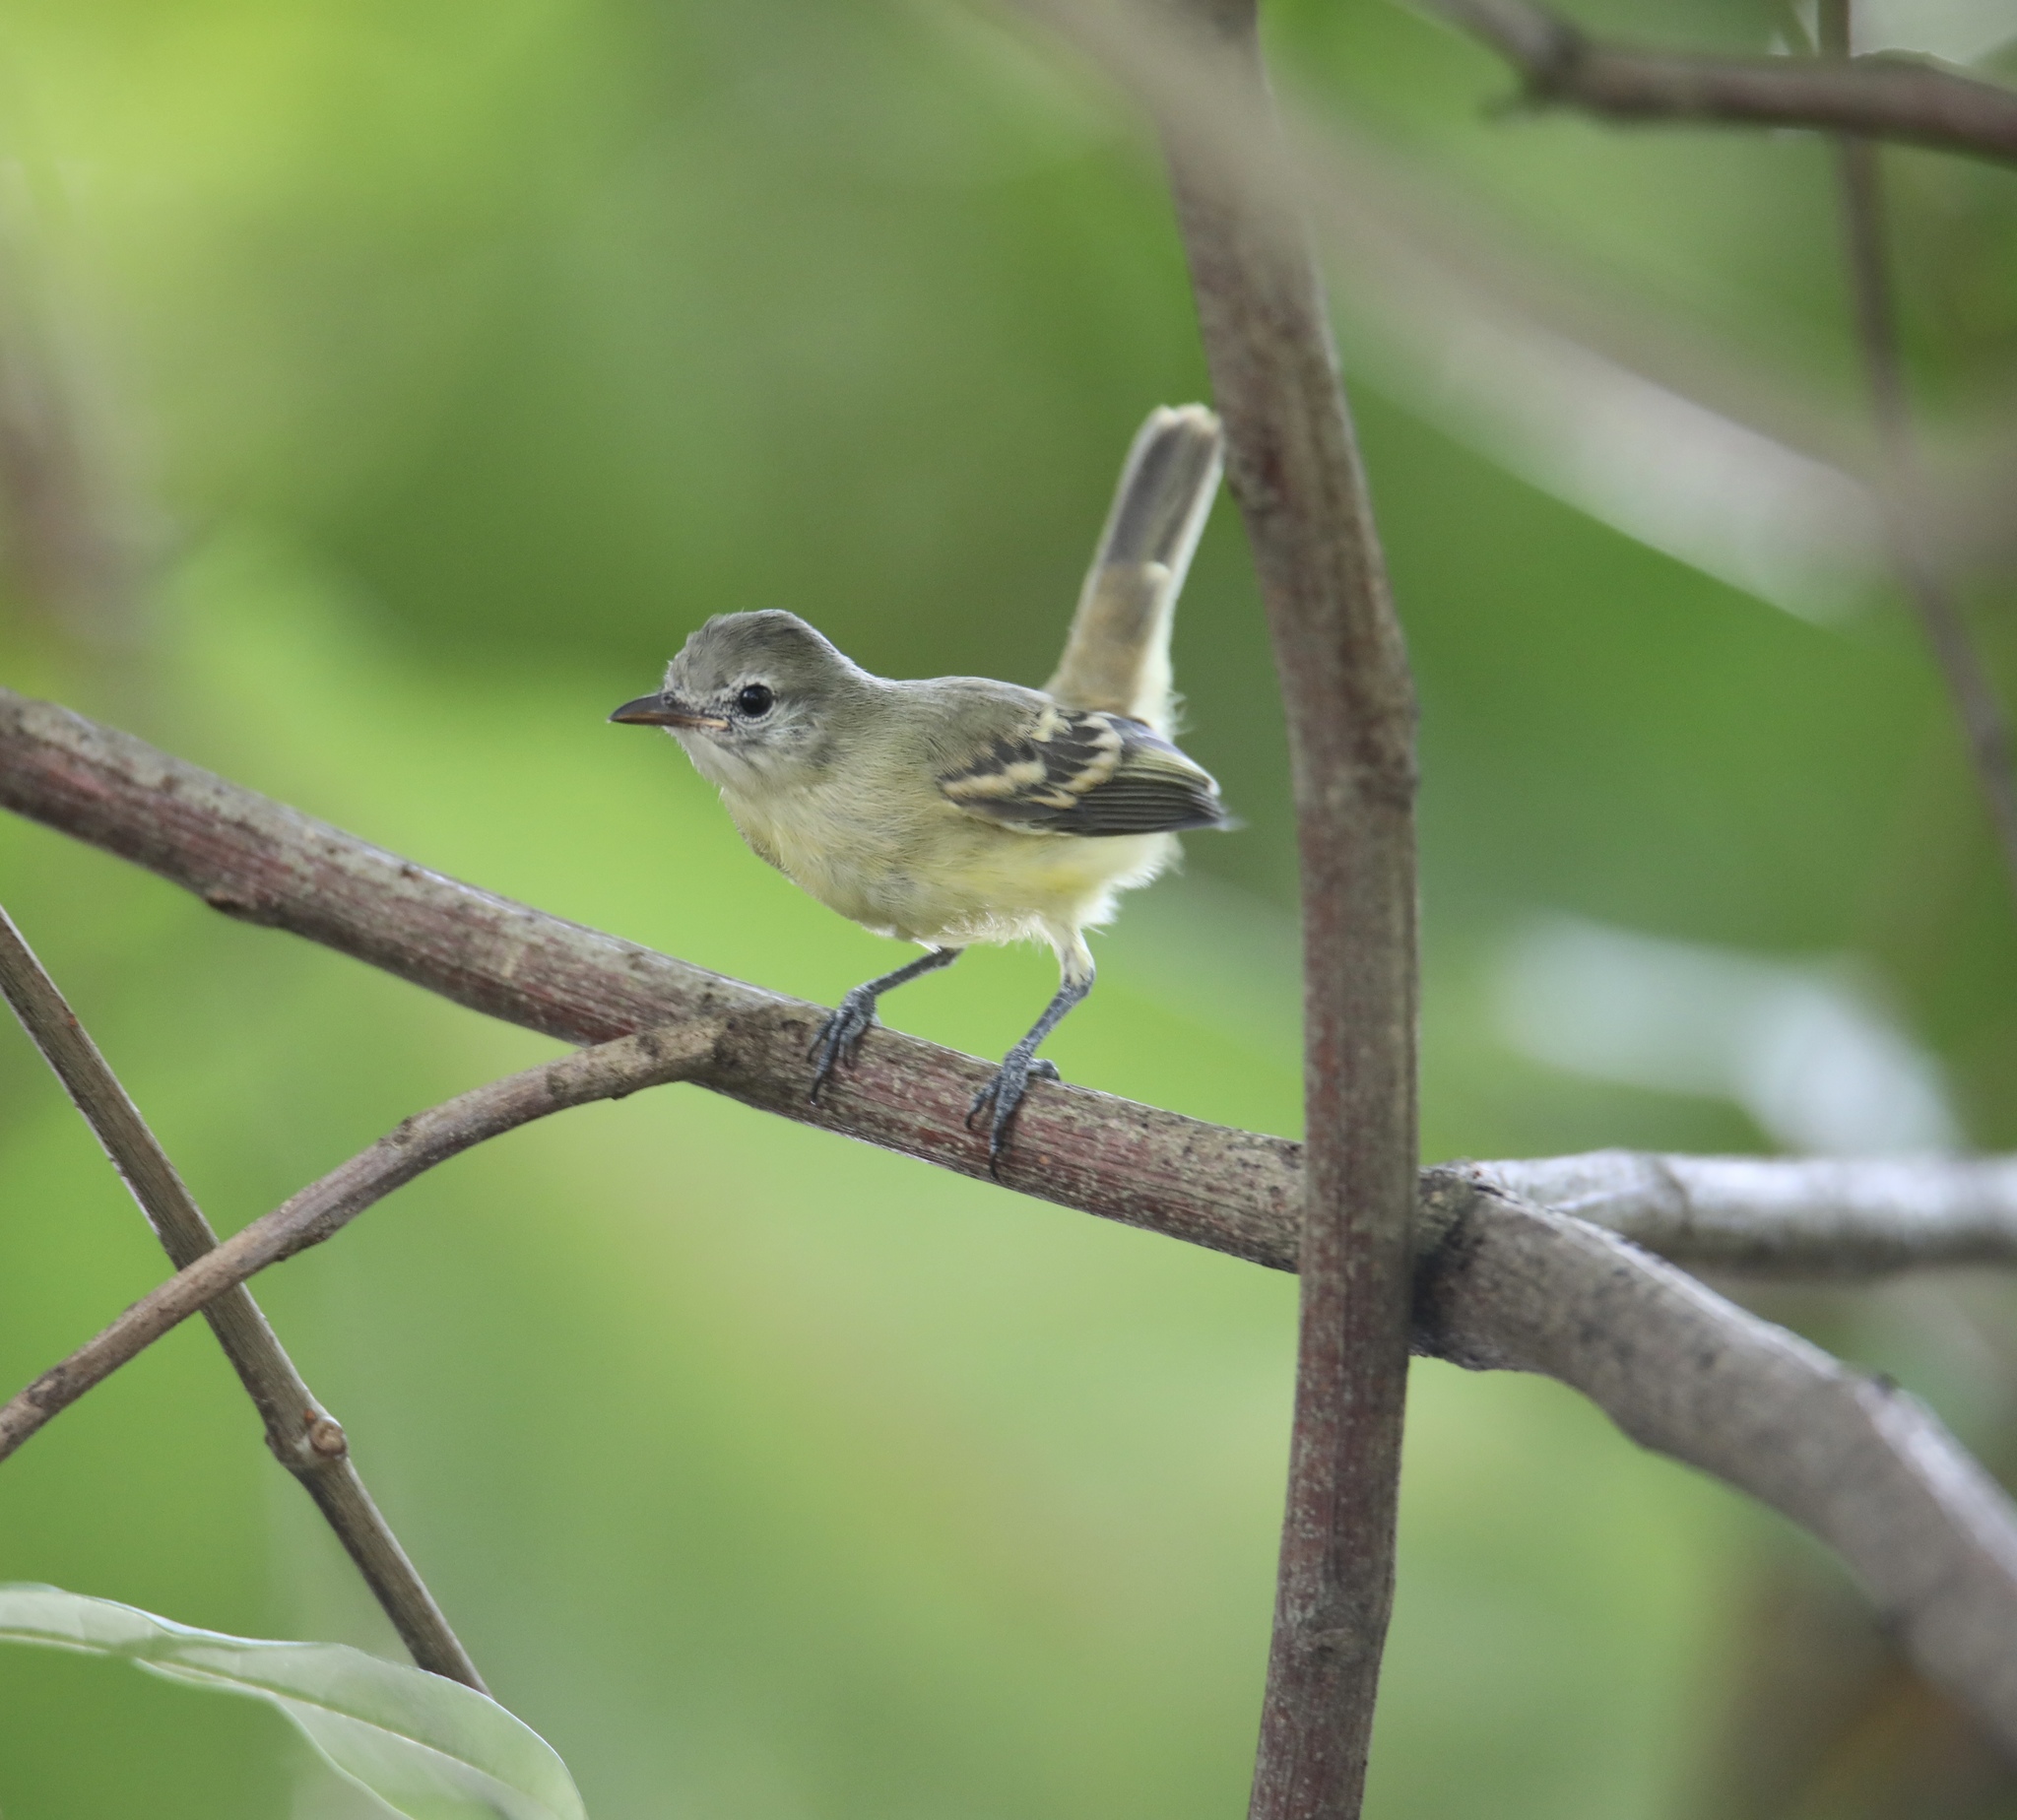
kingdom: Animalia
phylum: Chordata
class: Aves
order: Passeriformes
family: Tyrannidae
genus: Camptostoma
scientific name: Camptostoma obsoletum
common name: Southern beardless-tyrannulet
